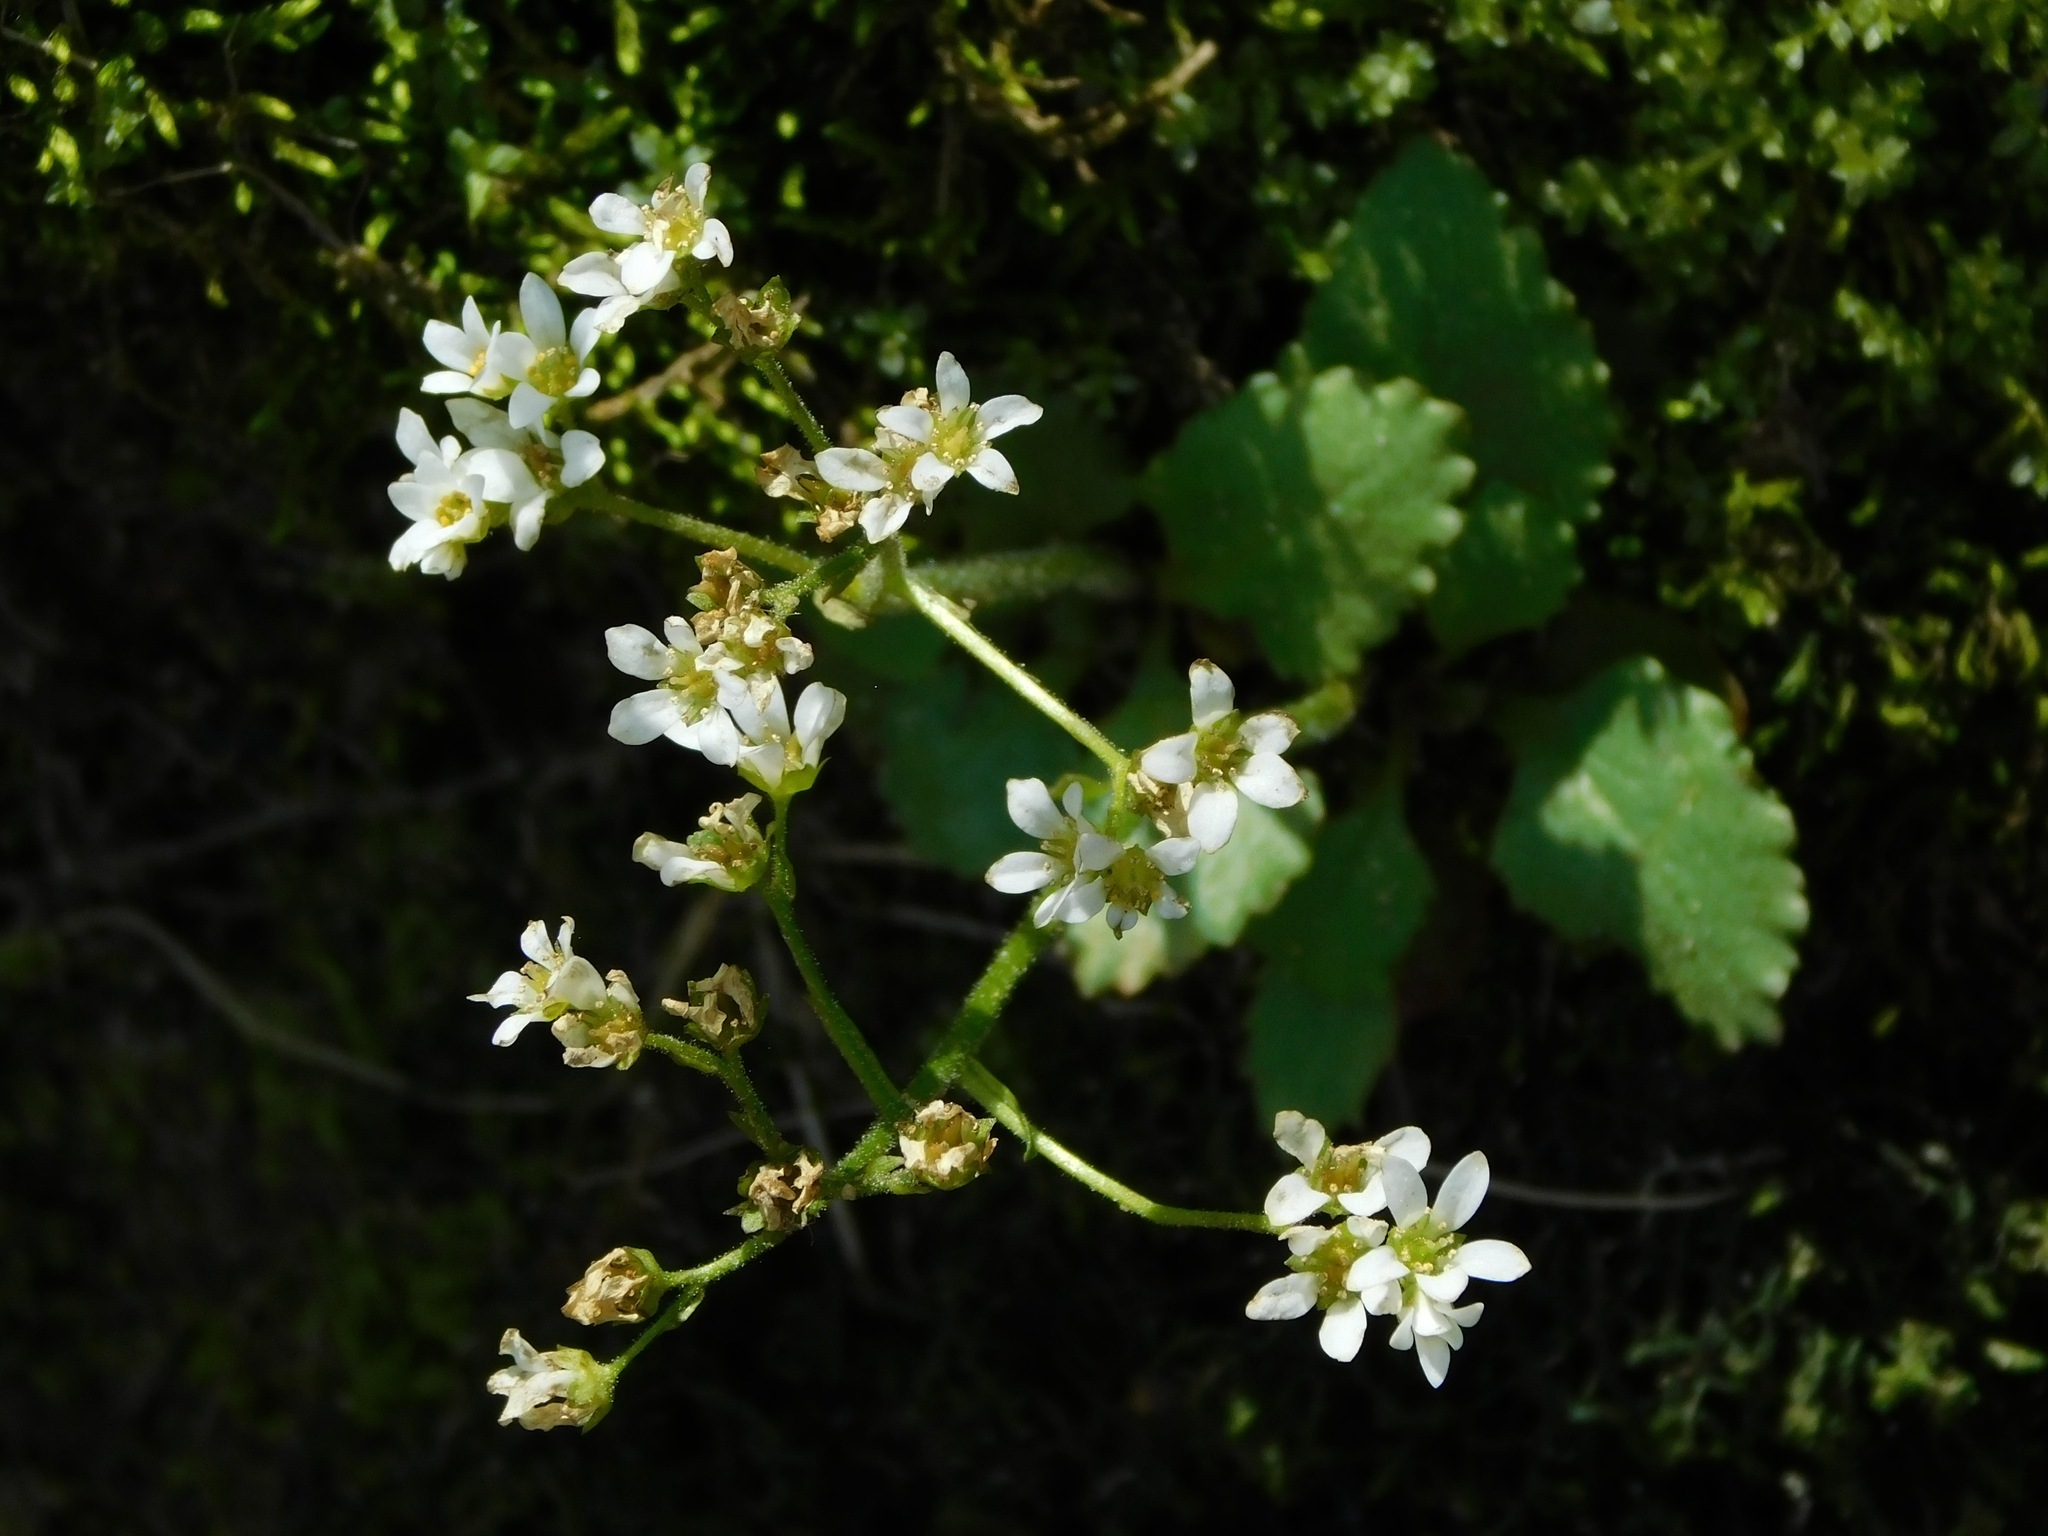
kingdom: Plantae
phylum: Tracheophyta
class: Magnoliopsida
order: Saxifragales
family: Saxifragaceae
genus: Micranthes
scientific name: Micranthes virginiensis
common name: Early saxifrage
